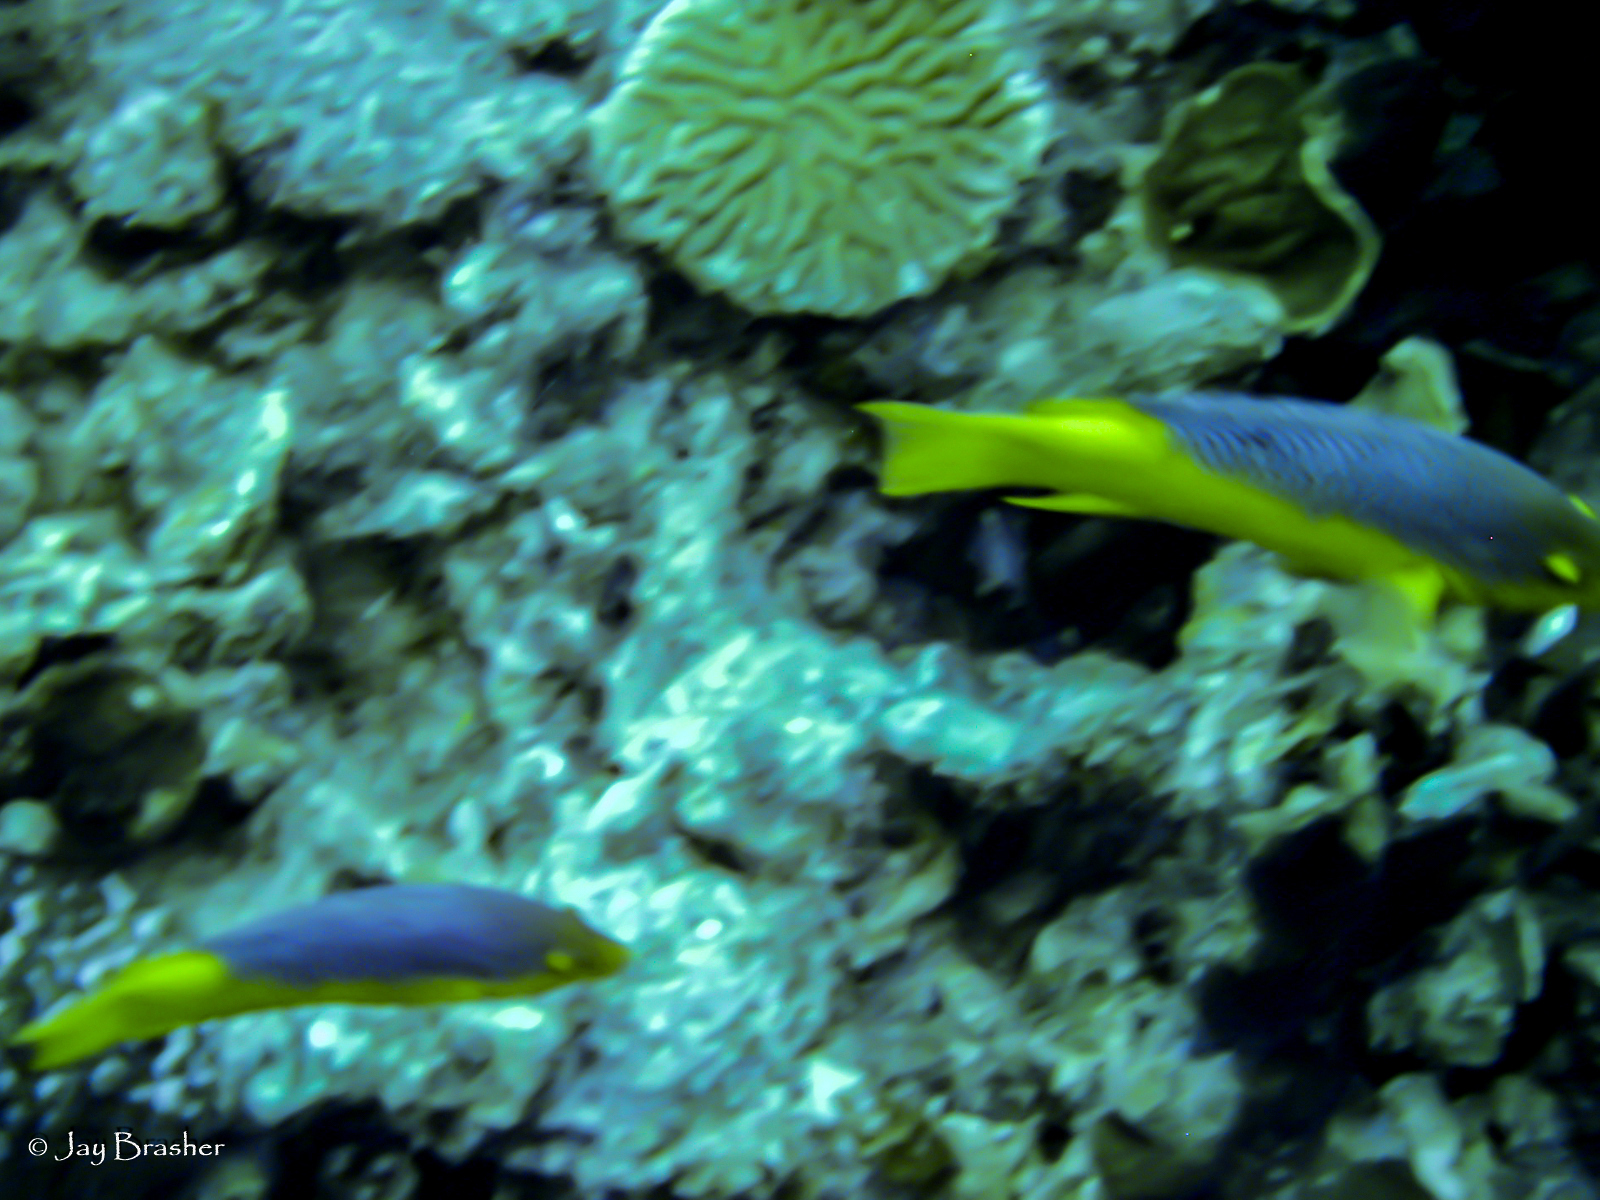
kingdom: Animalia
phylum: Chordata
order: Perciformes
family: Labridae
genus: Bodianus
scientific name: Bodianus rufus
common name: Spanish hogfish
